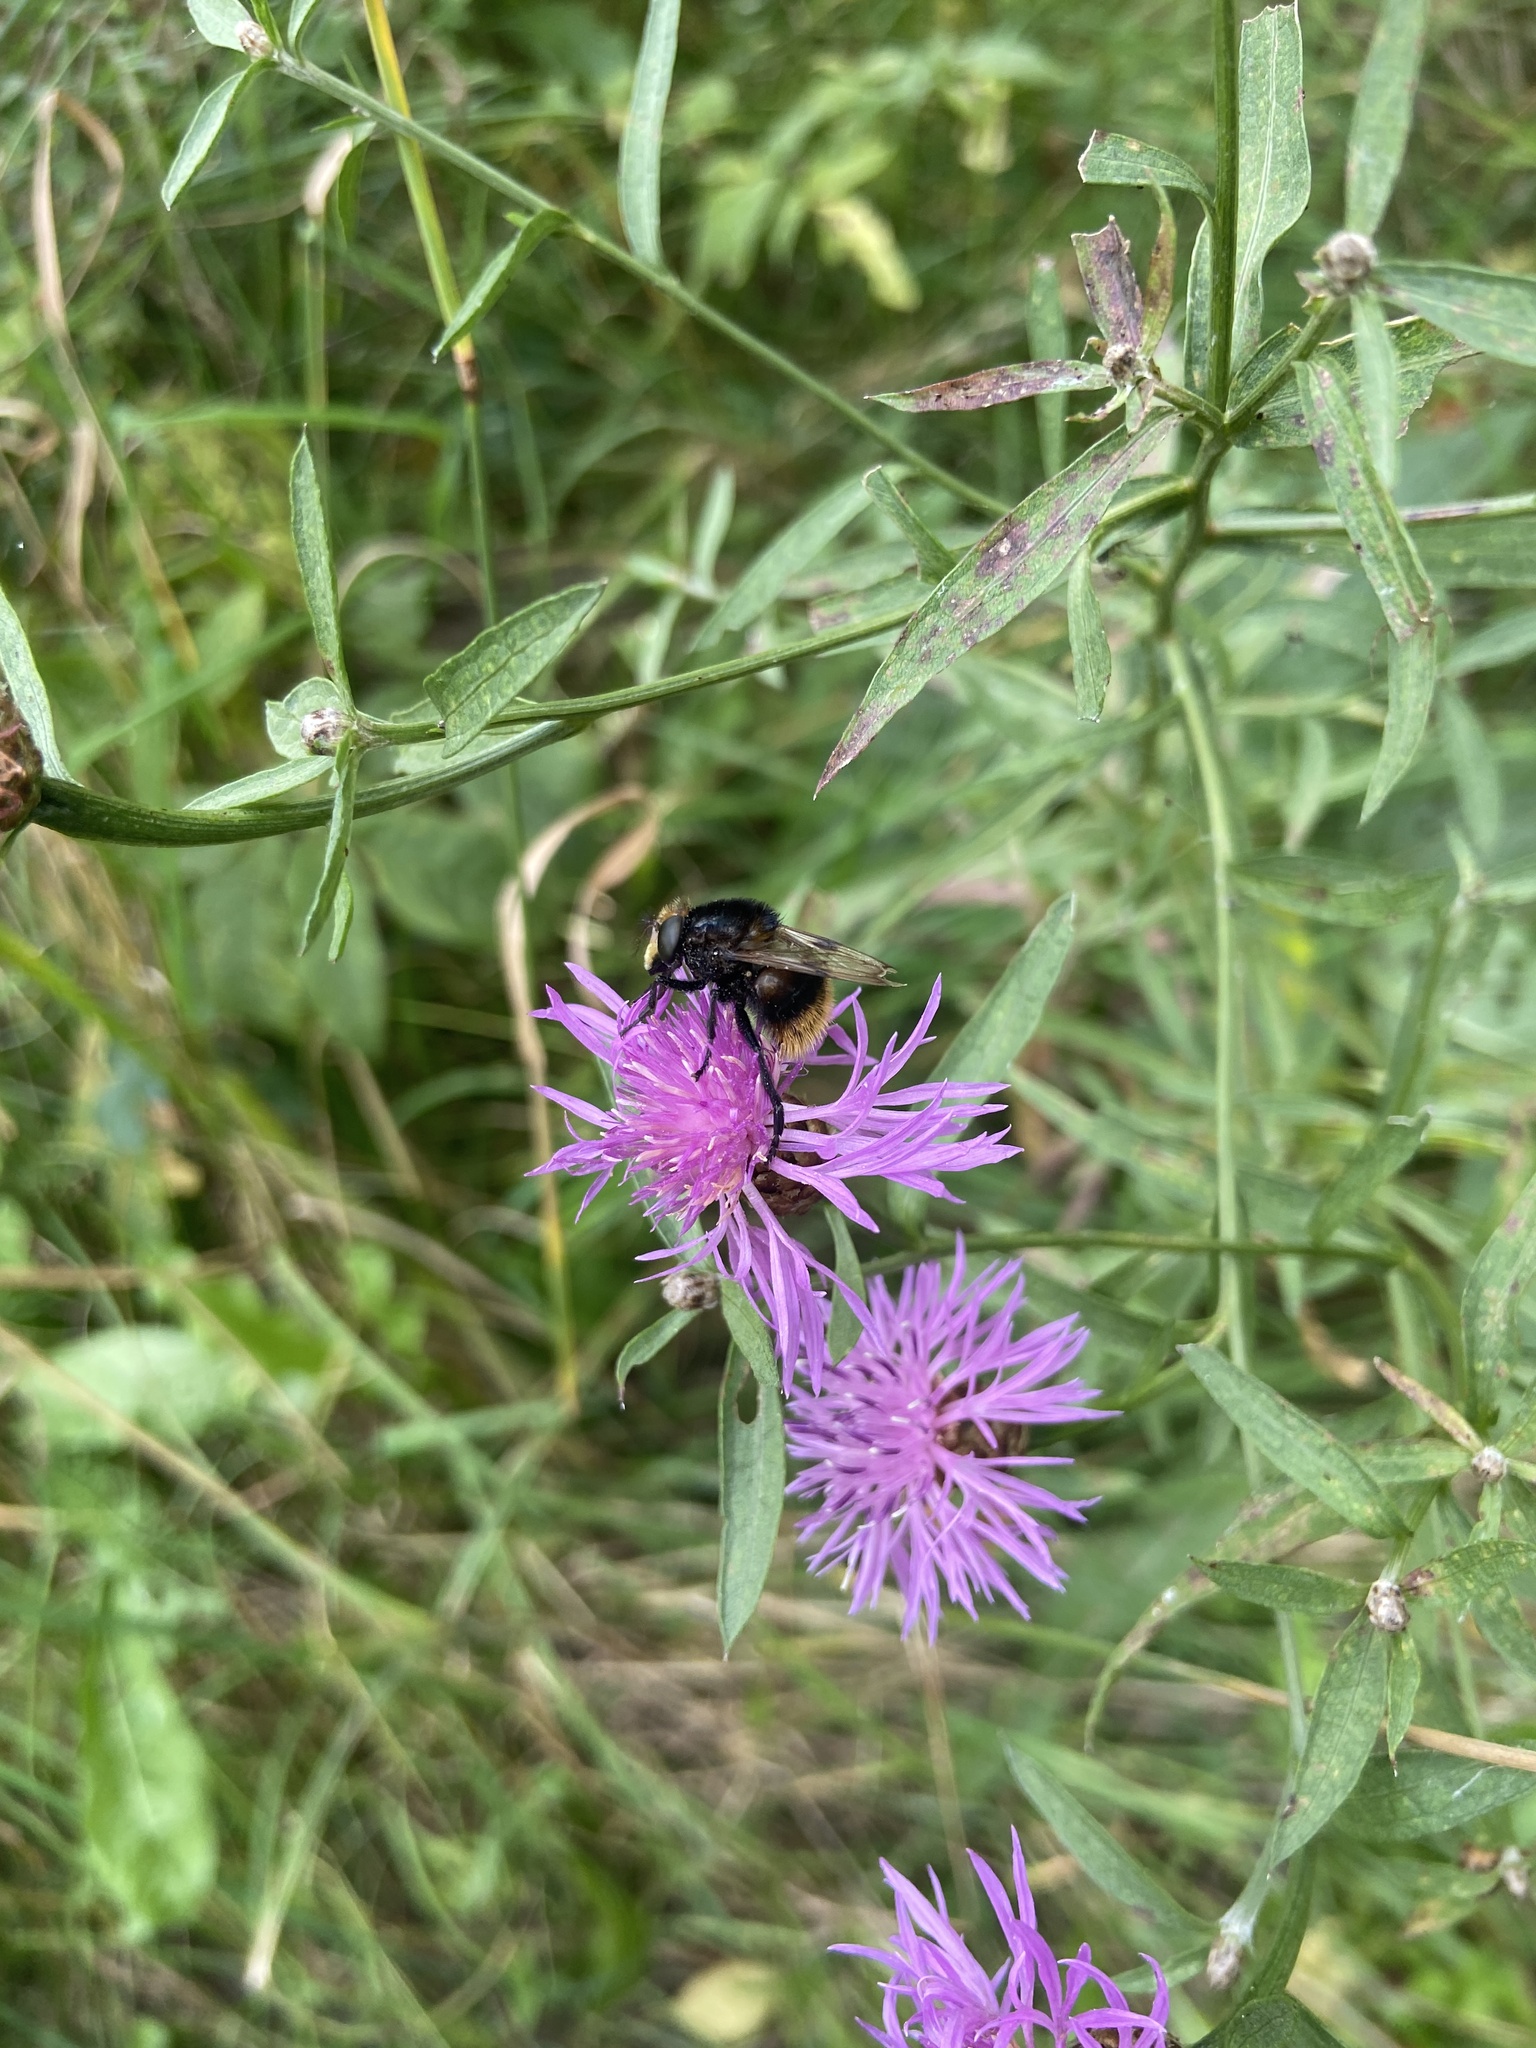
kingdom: Animalia
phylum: Arthropoda
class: Insecta
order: Diptera
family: Syrphidae
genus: Volucella
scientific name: Volucella bombylans
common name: Bumble bee hover fly
